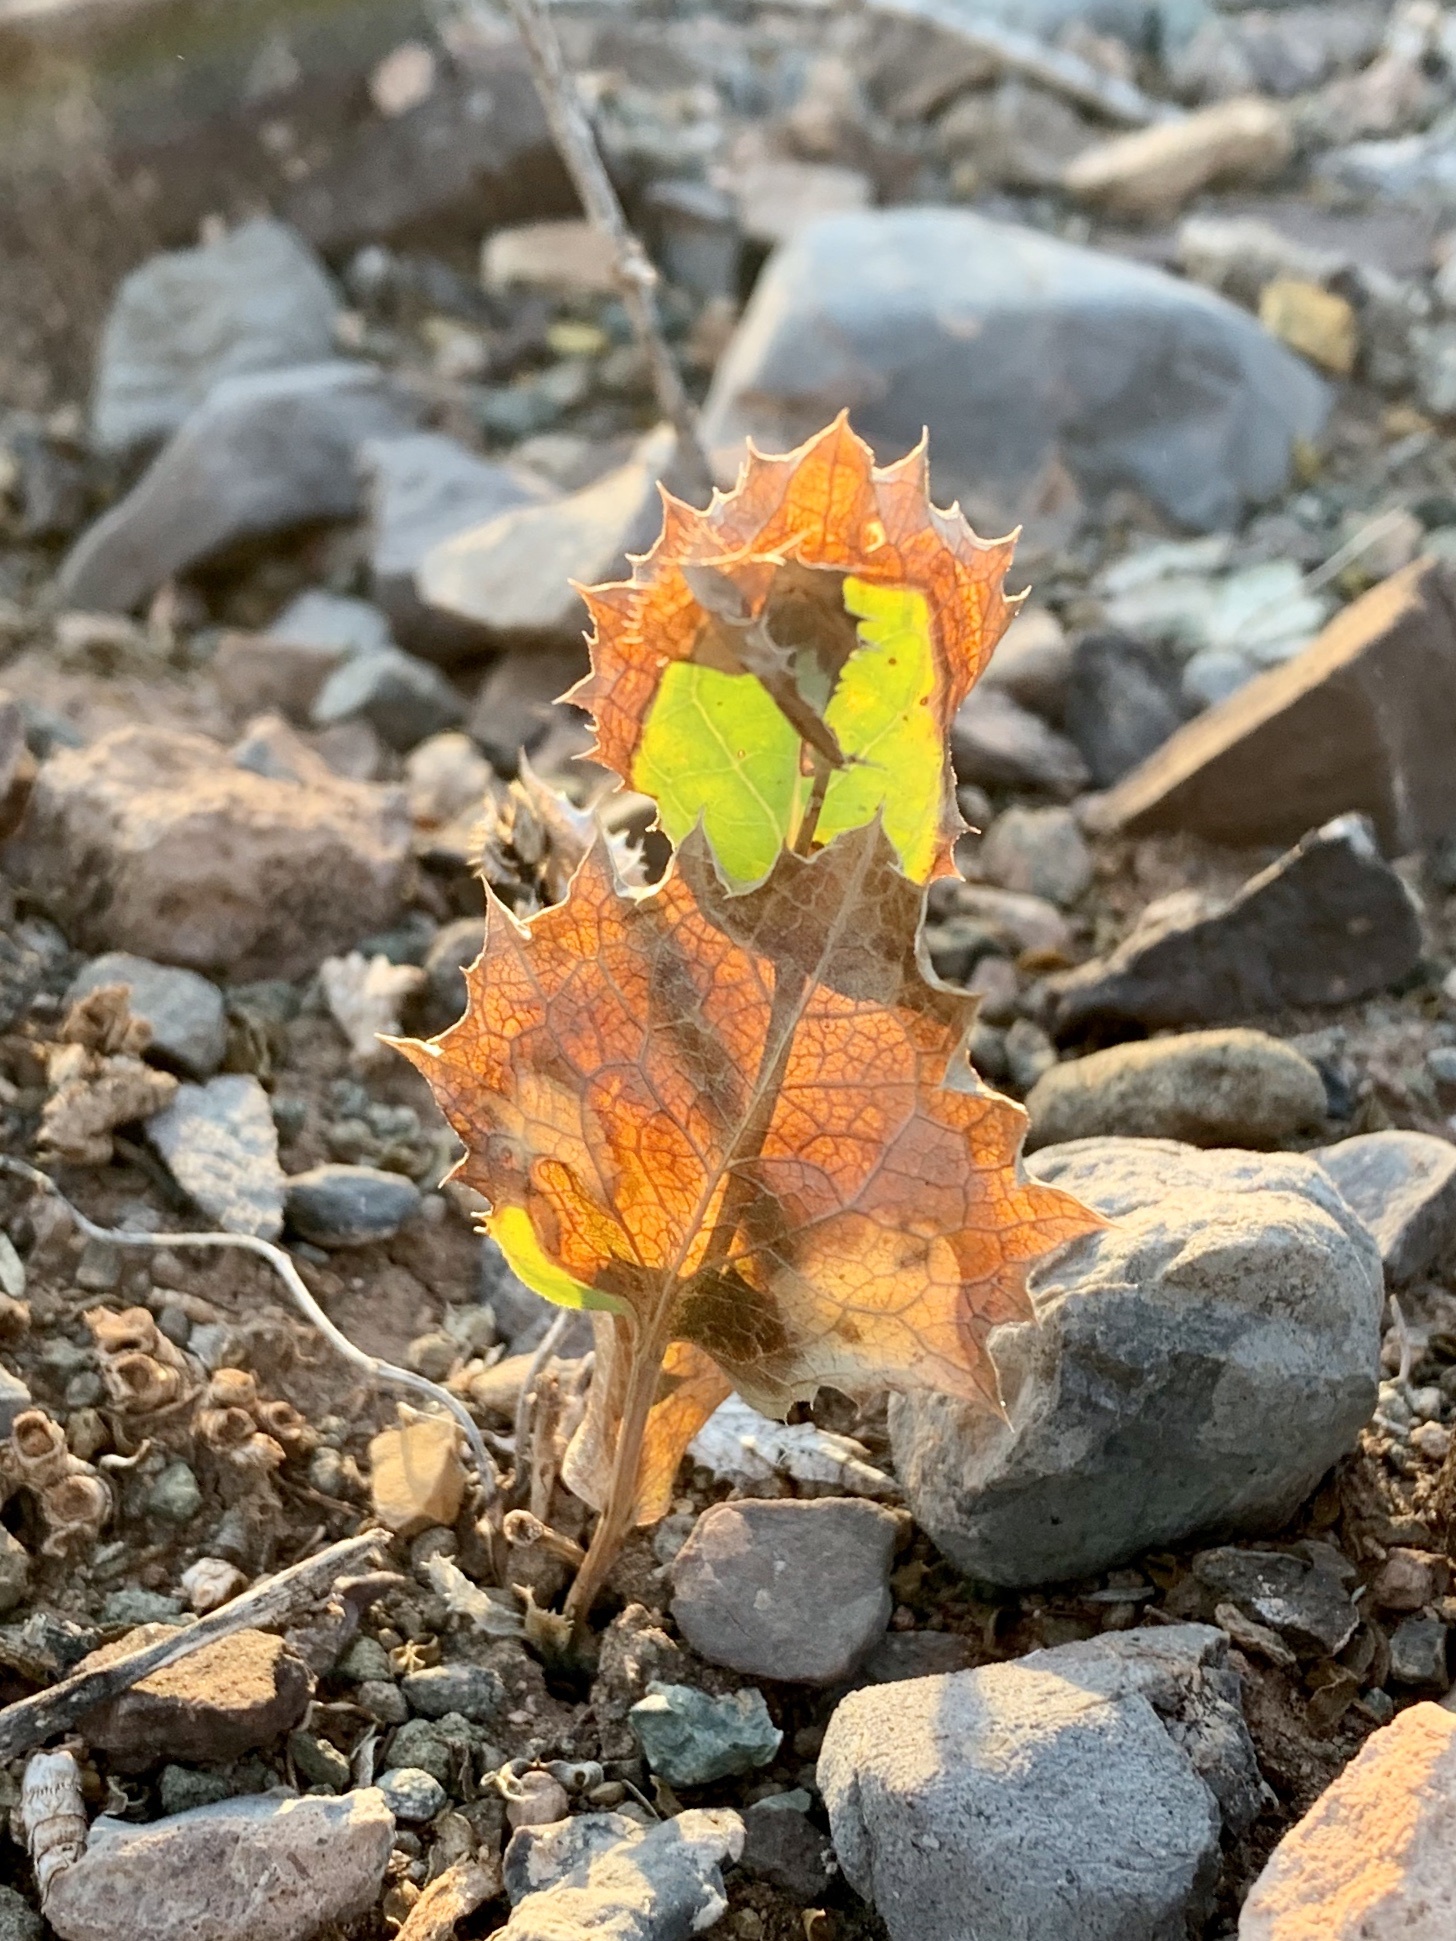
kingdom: Plantae
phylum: Tracheophyta
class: Magnoliopsida
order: Asterales
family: Asteraceae
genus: Acourtia
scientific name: Acourtia nana
